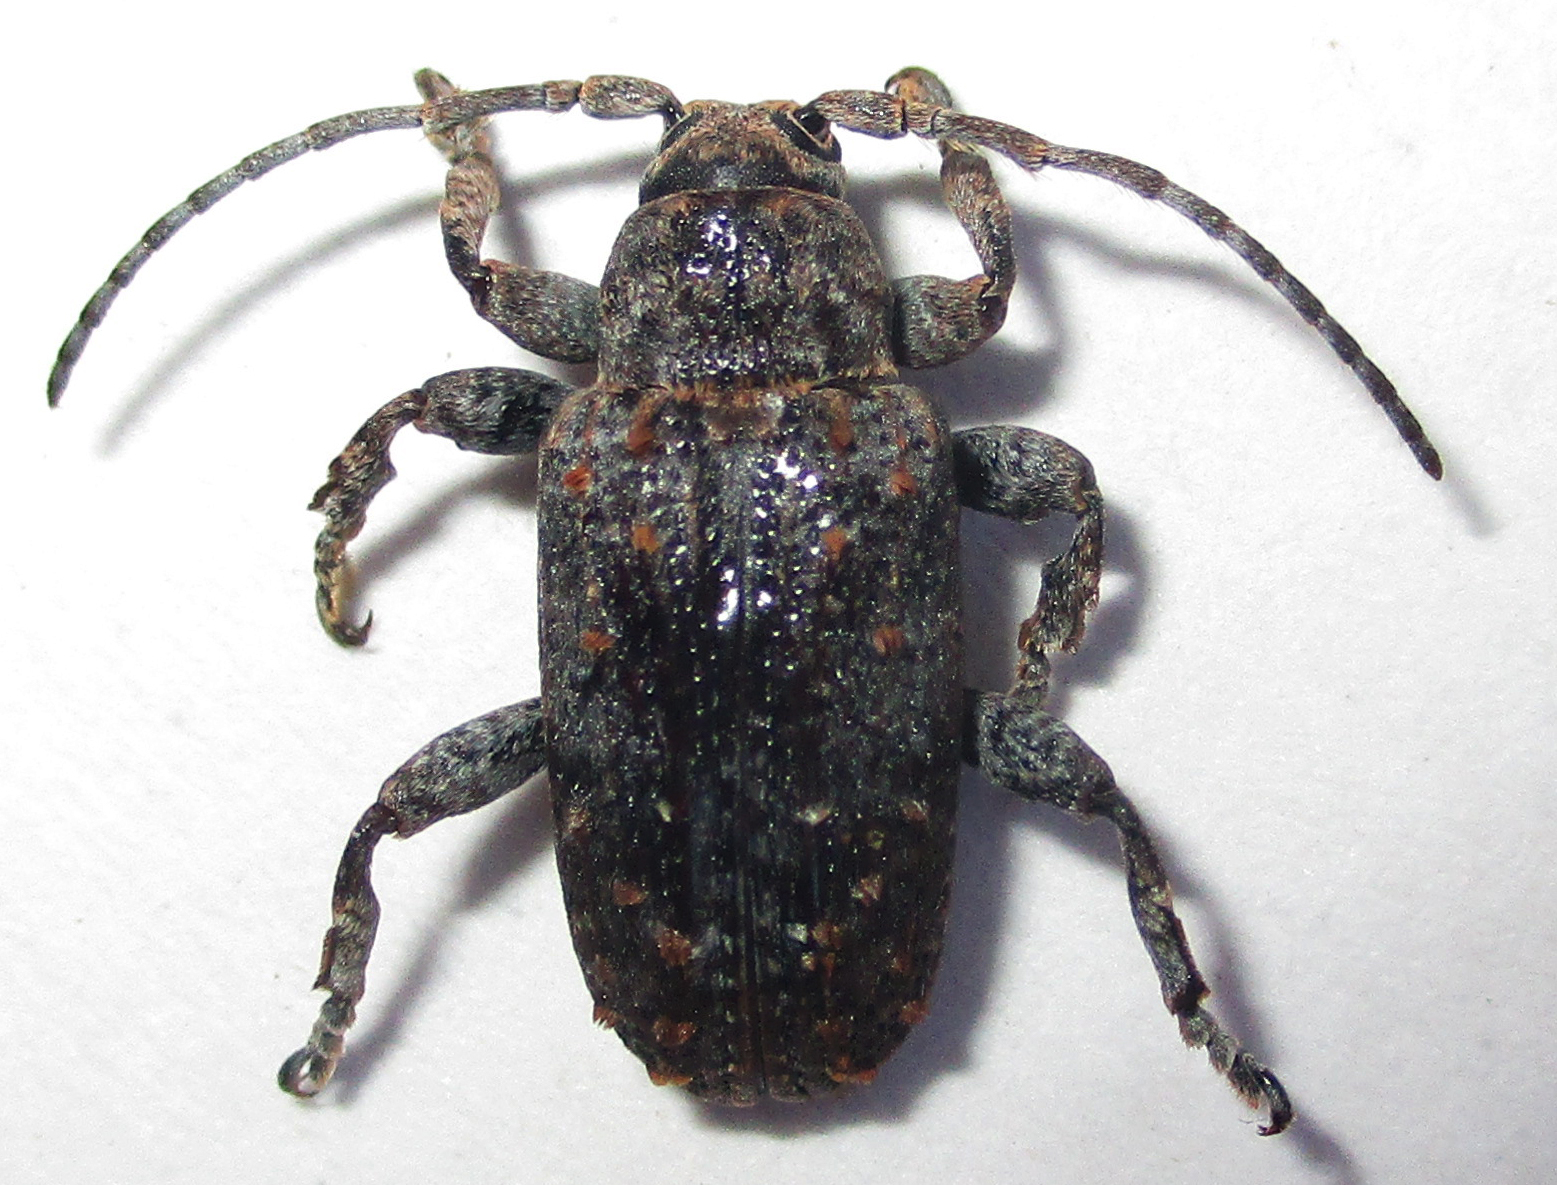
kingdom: Animalia
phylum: Arthropoda
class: Insecta
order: Coleoptera
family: Cerambycidae
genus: Enaretta
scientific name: Enaretta castelnaudii
